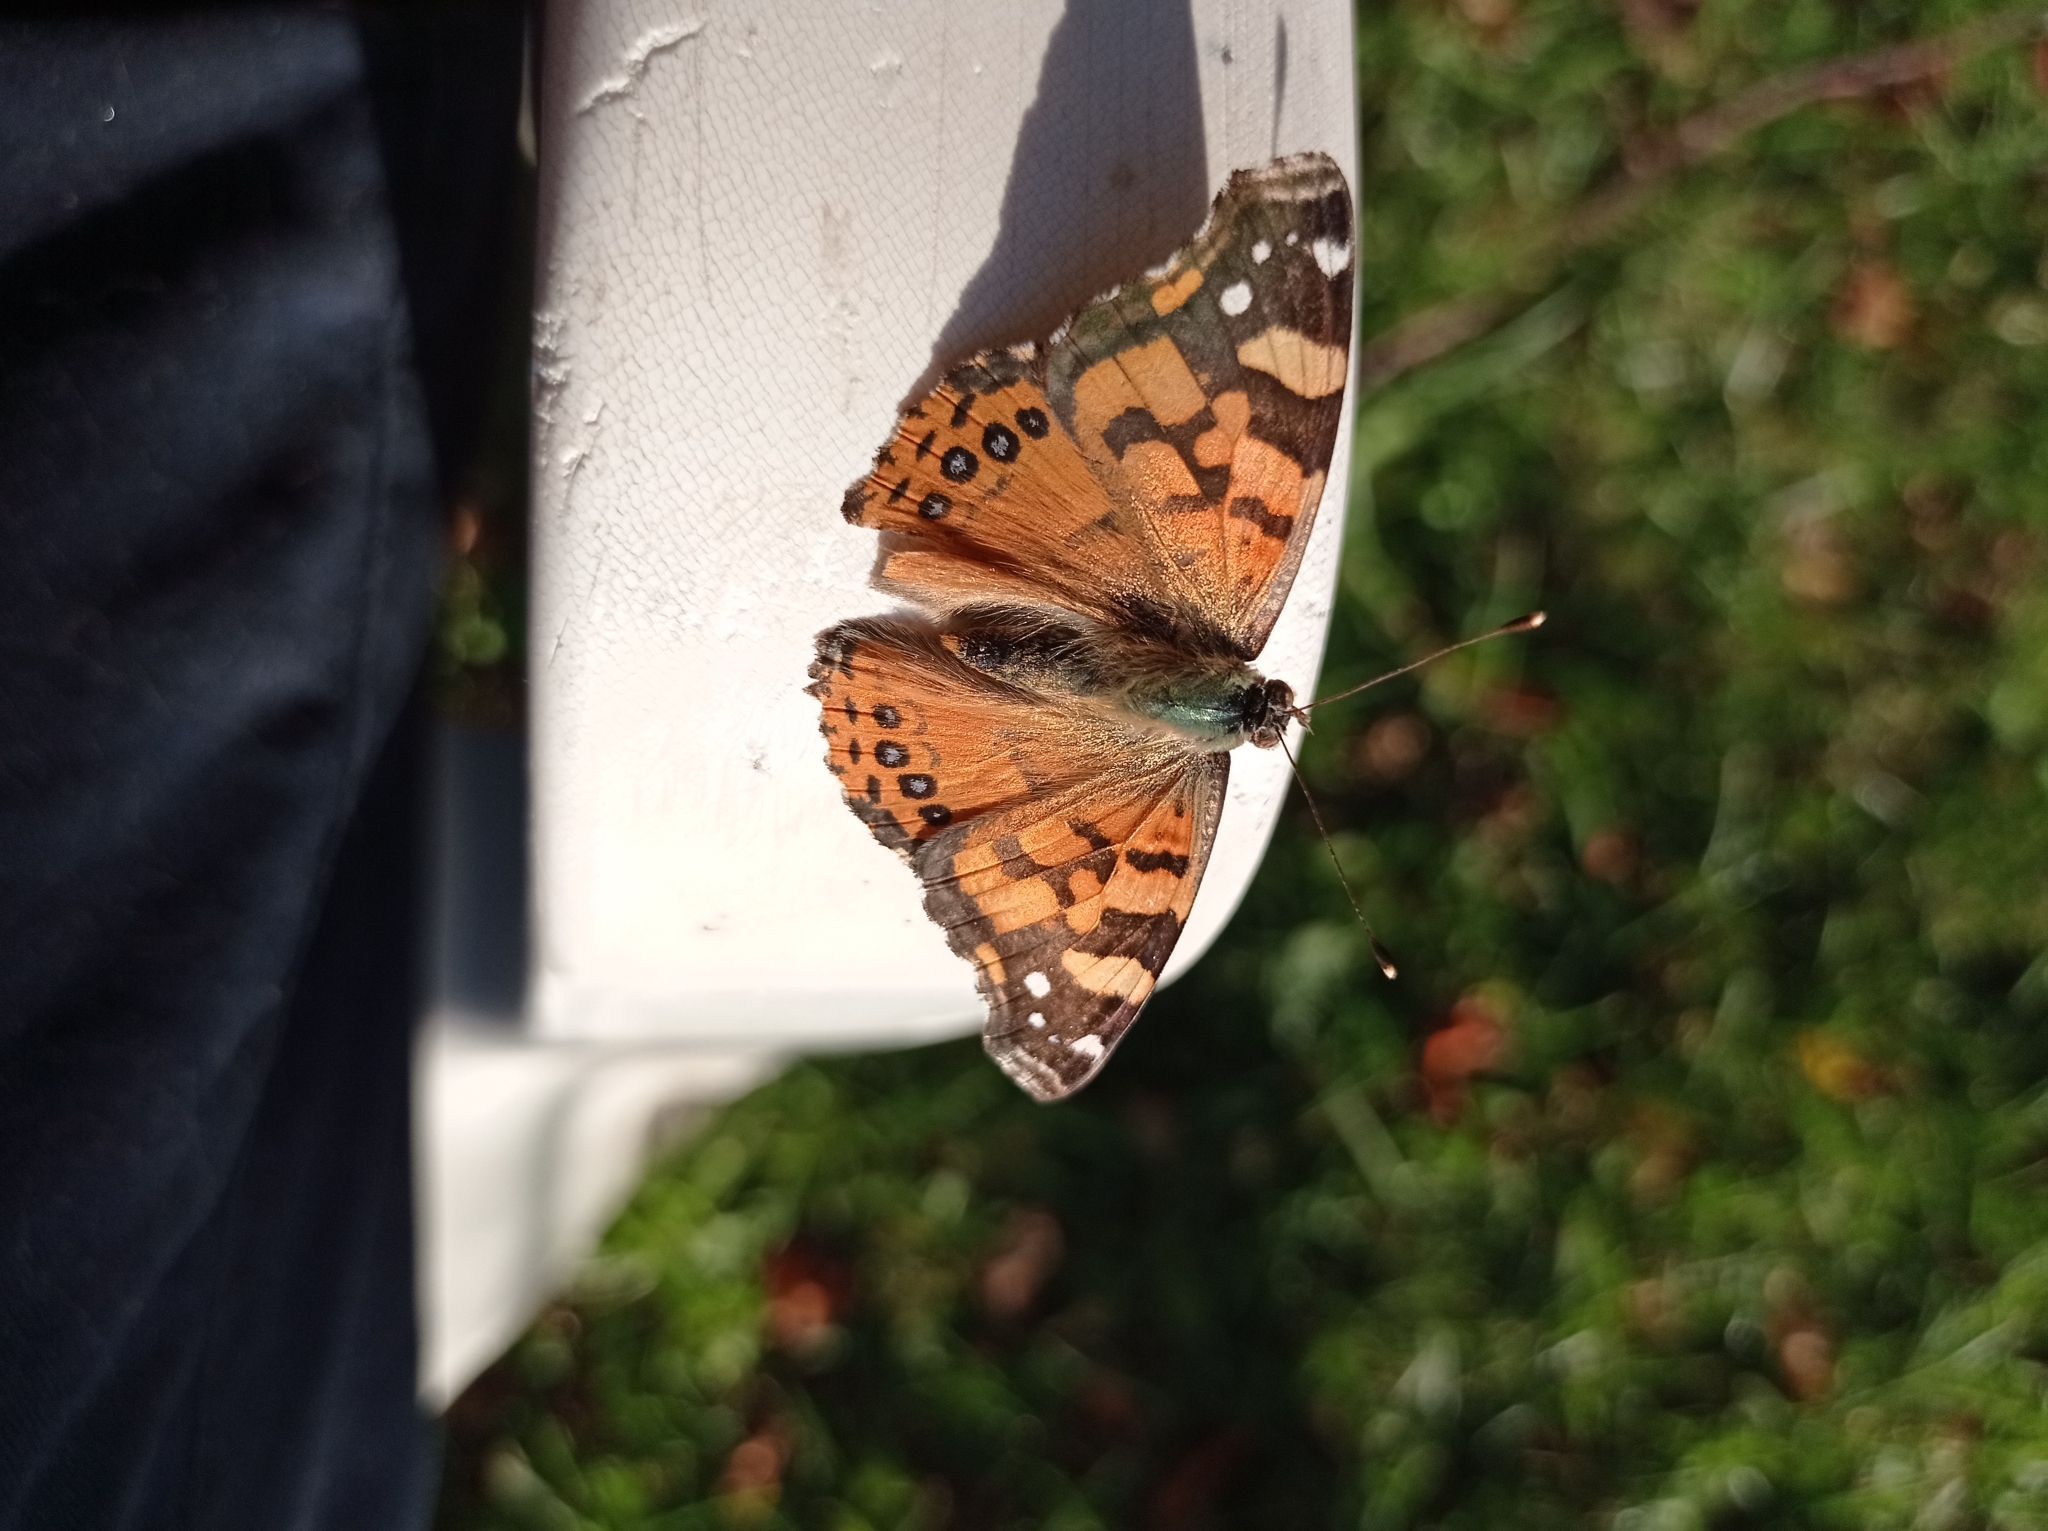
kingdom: Animalia
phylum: Arthropoda
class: Insecta
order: Lepidoptera
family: Nymphalidae
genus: Vanessa
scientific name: Vanessa carye
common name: Subtropical lady
